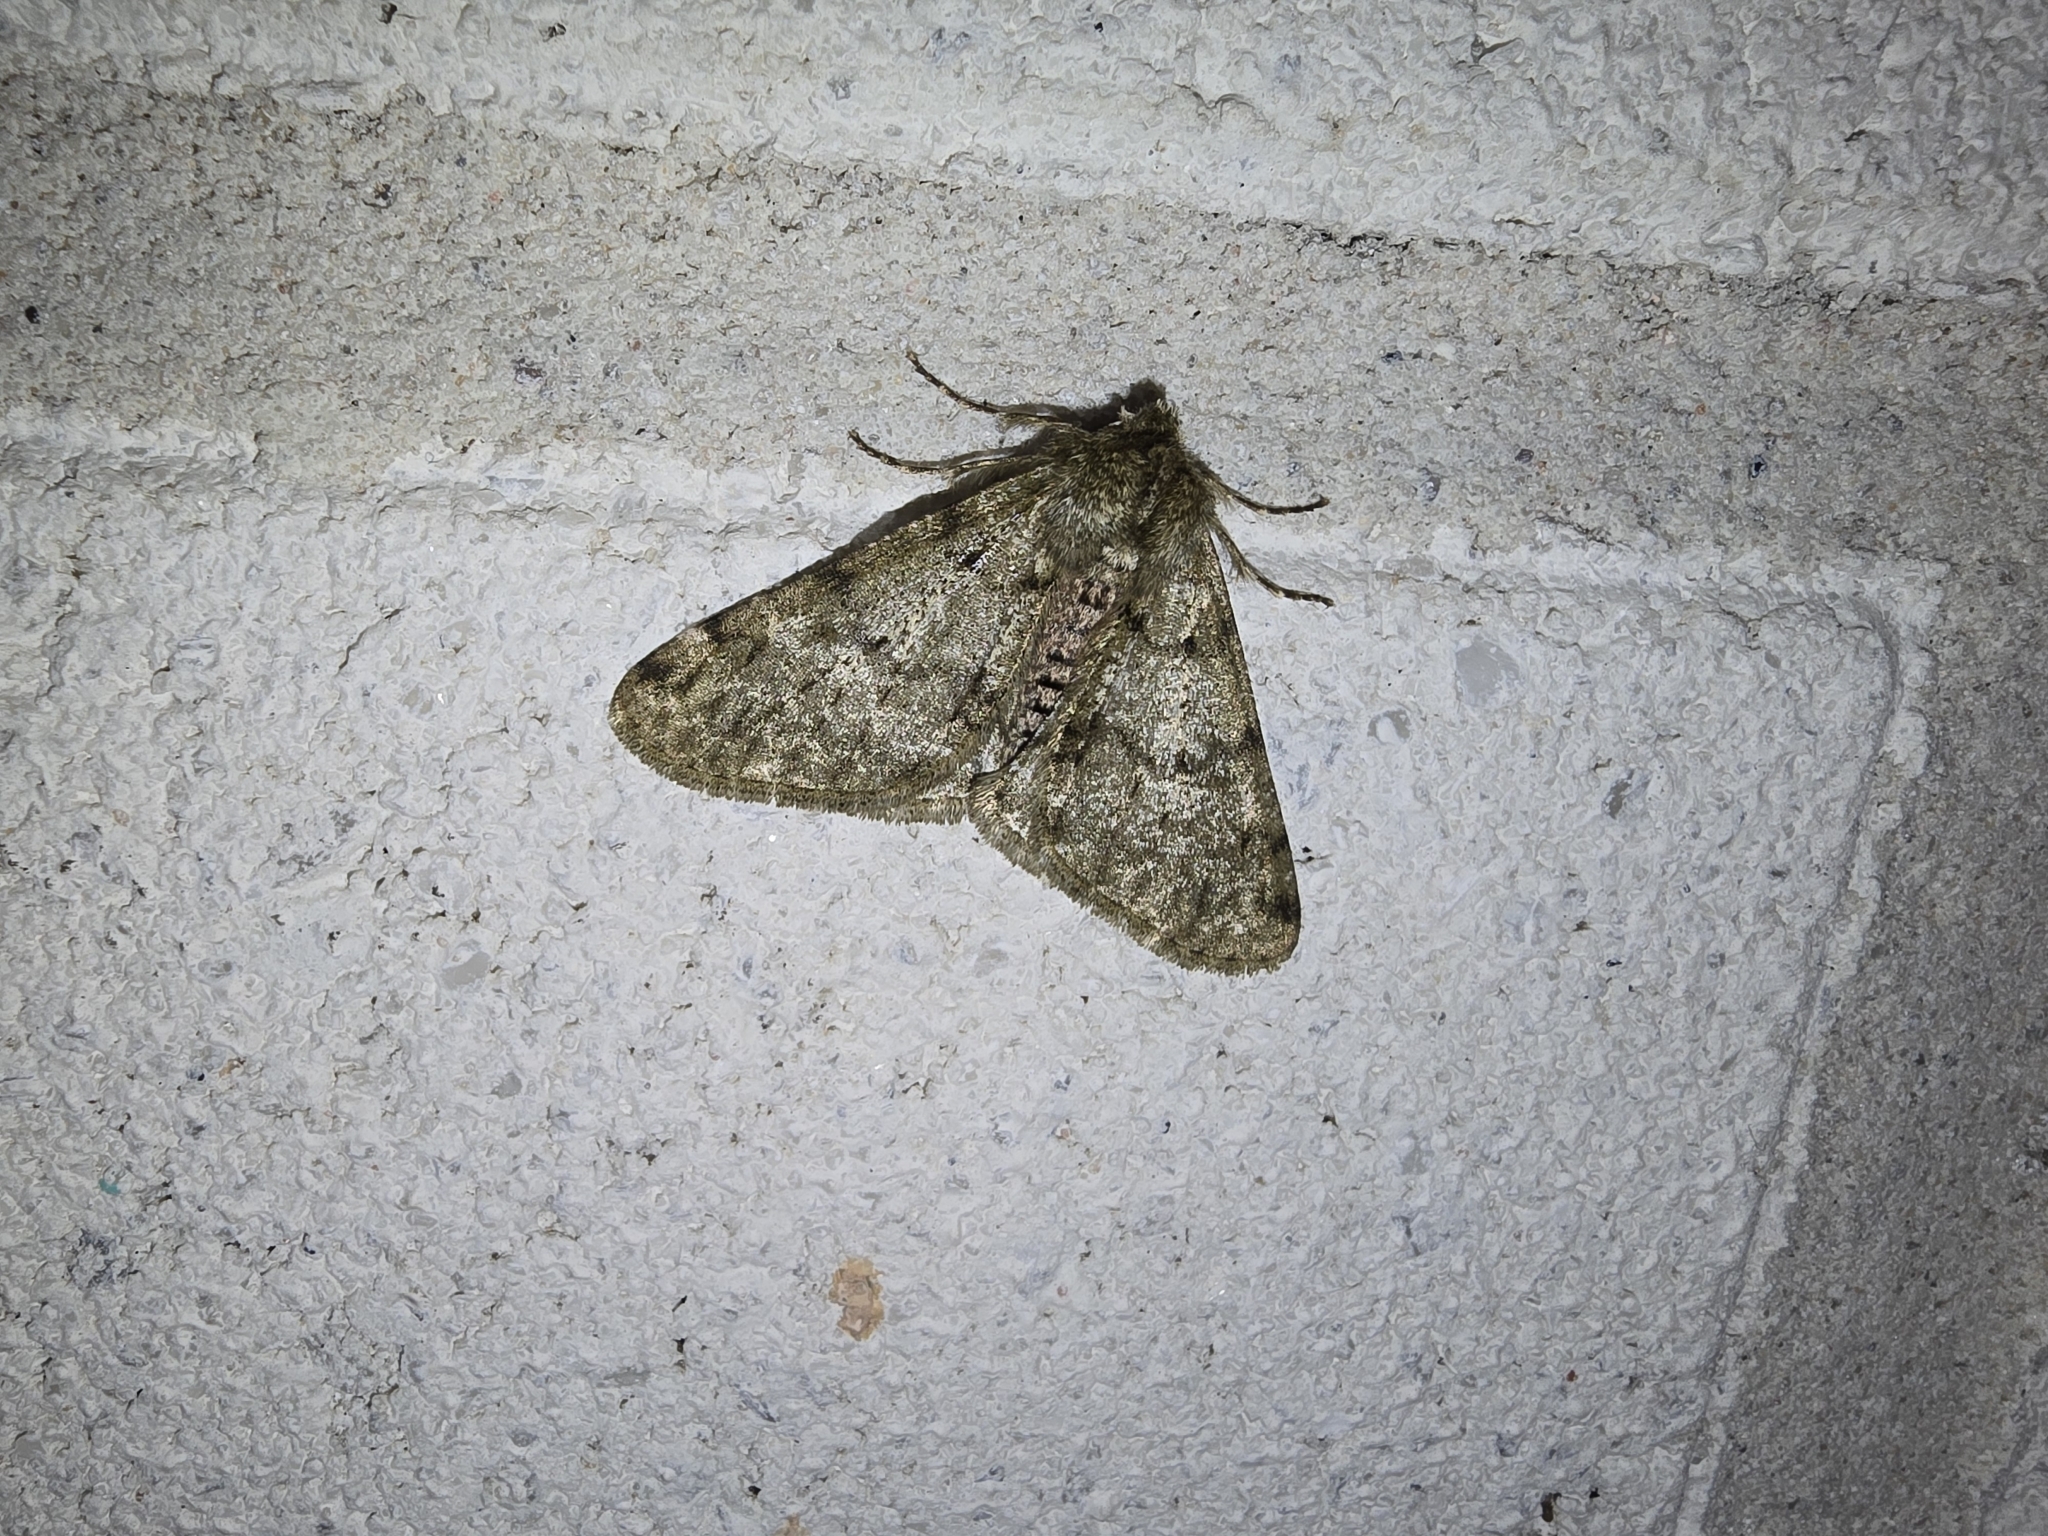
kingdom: Animalia
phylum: Arthropoda
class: Insecta
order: Lepidoptera
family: Geometridae
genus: Phigalia
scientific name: Phigalia pilosaria
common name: Pale brindled beauty
